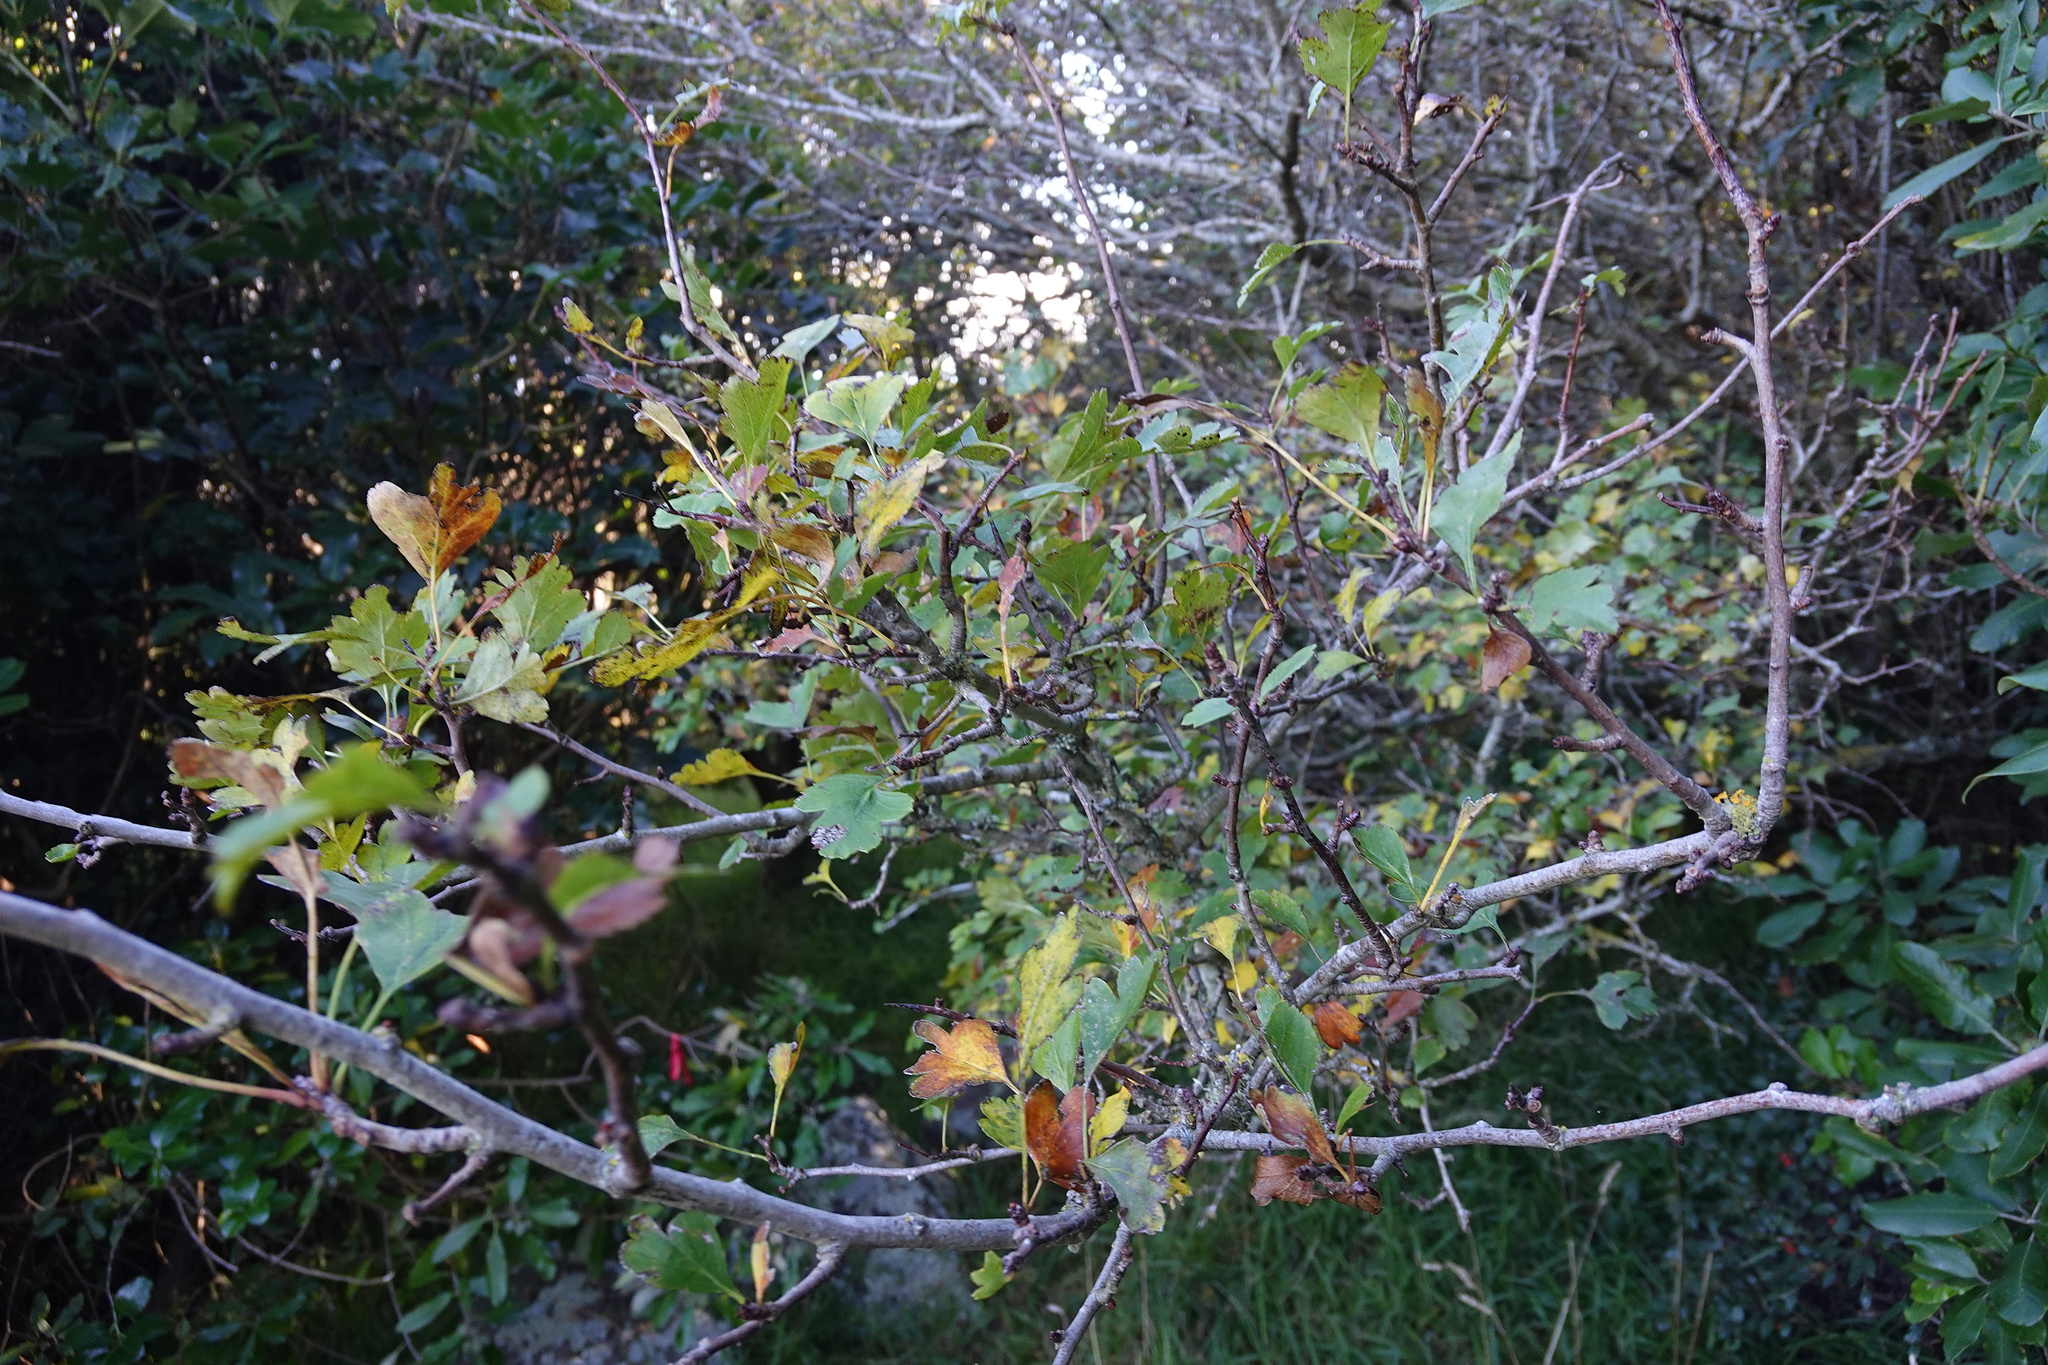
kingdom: Plantae
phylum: Tracheophyta
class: Magnoliopsida
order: Rosales
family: Rosaceae
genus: Crataegus
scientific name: Crataegus monogyna
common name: Hawthorn
